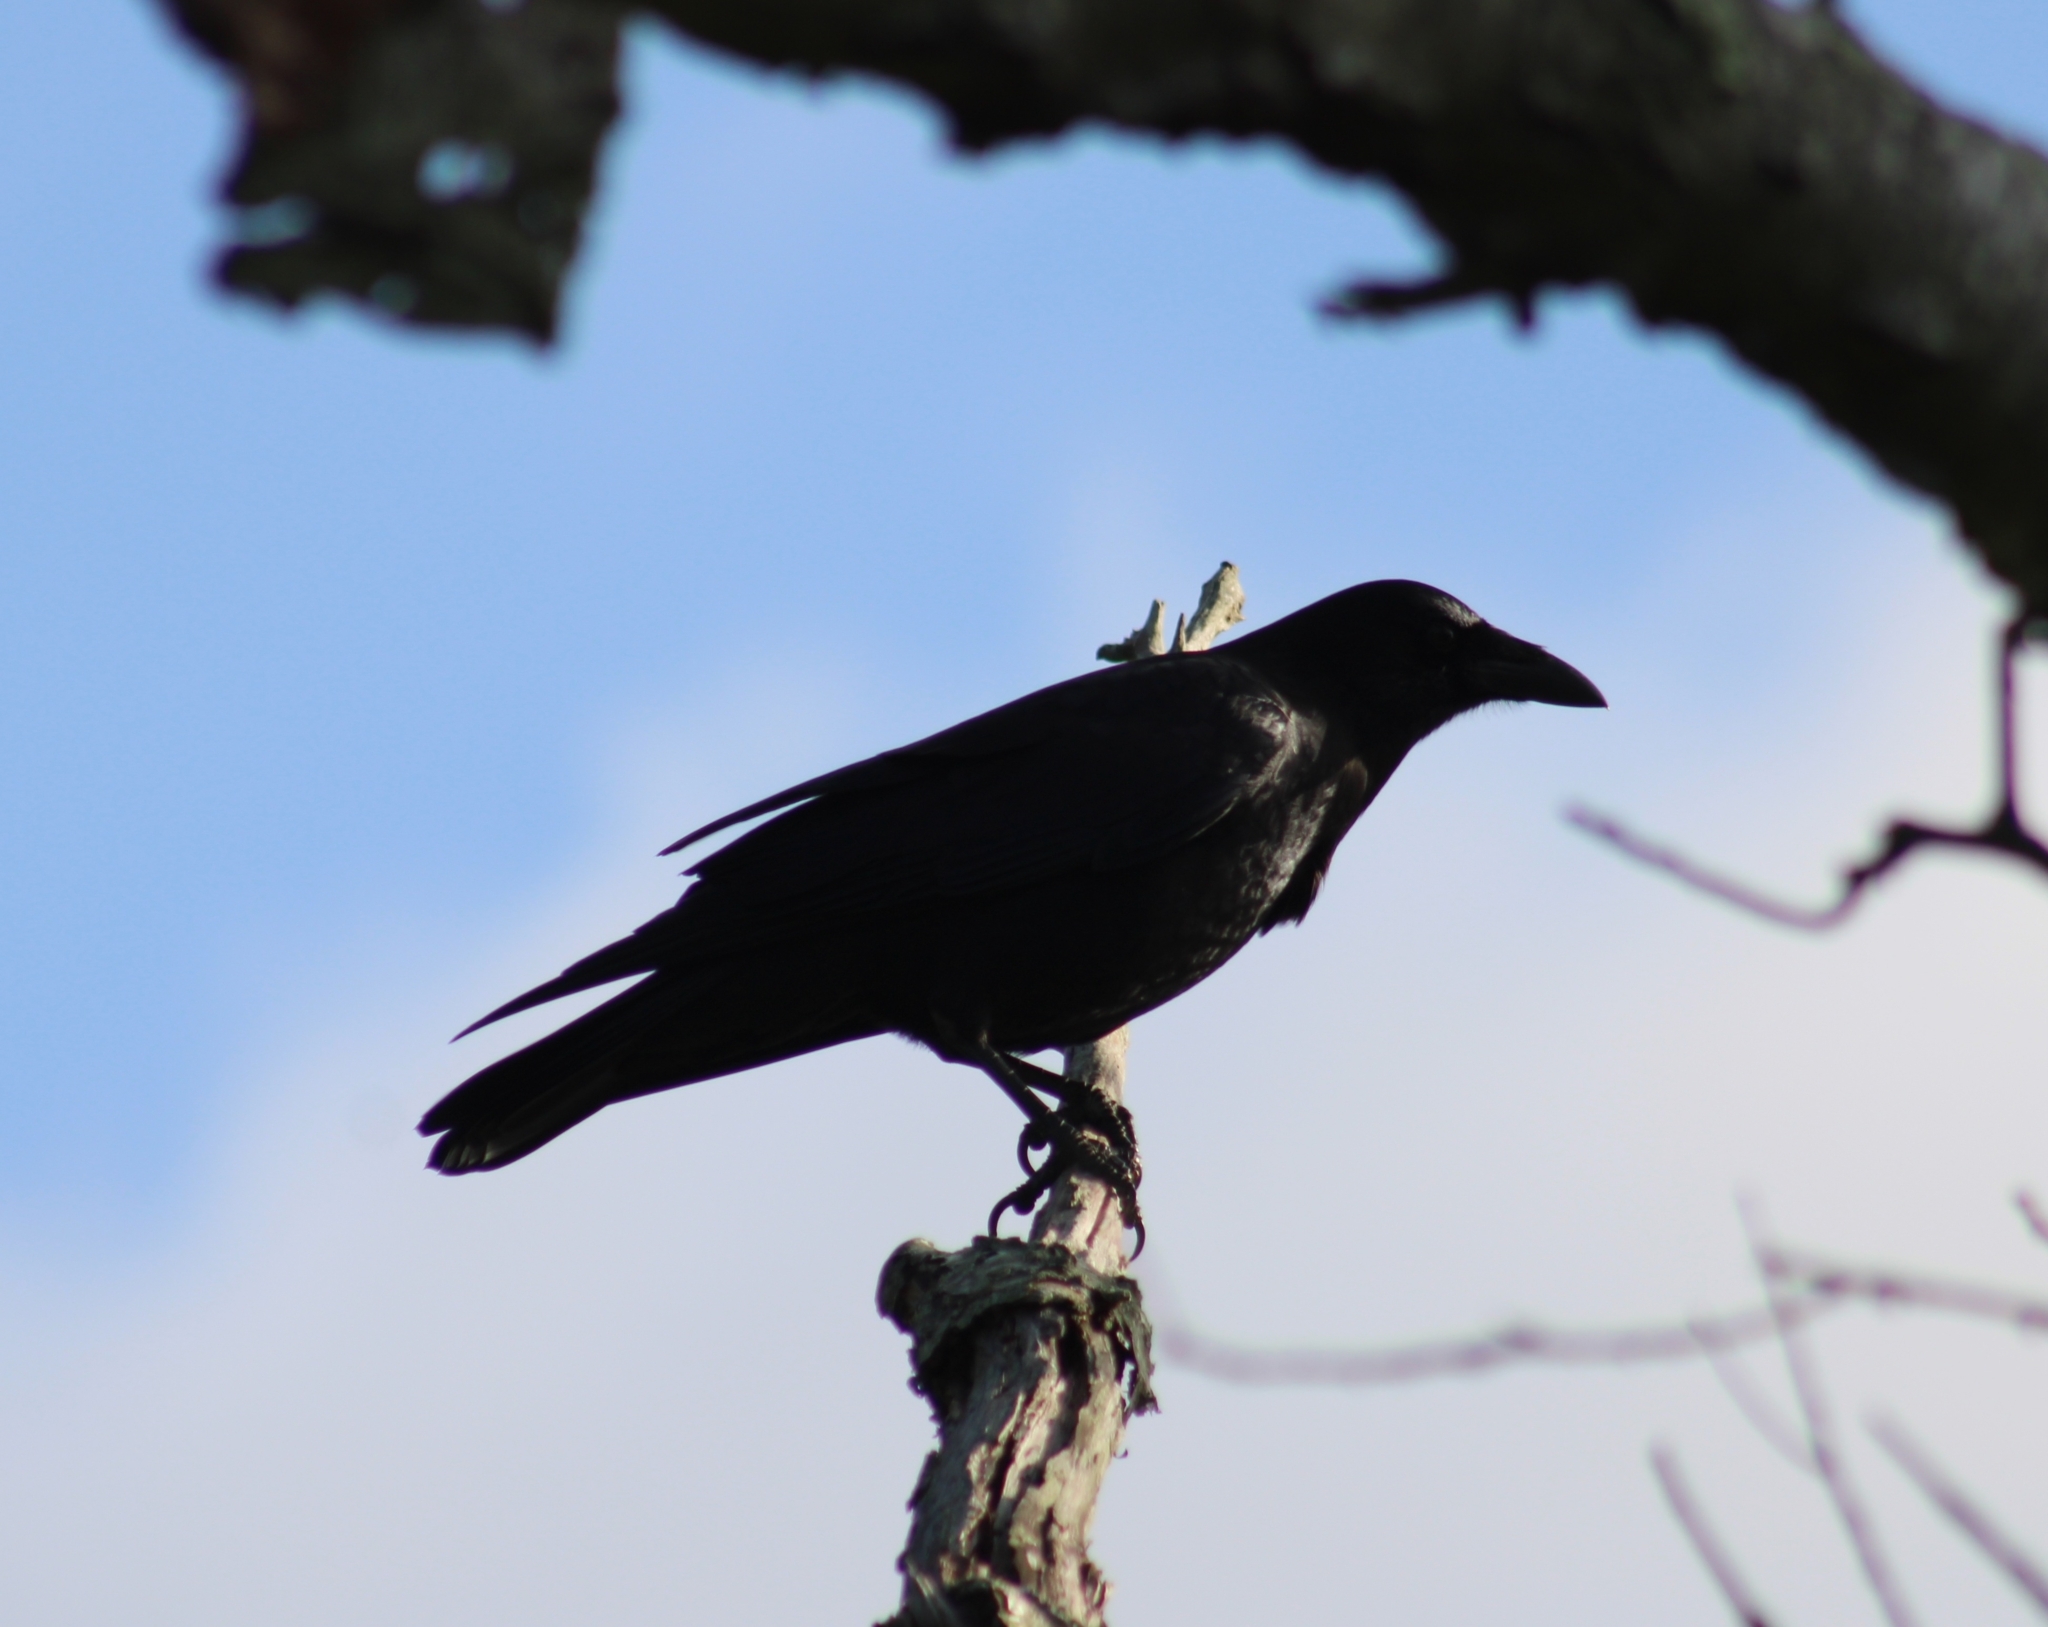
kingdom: Animalia
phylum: Chordata
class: Aves
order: Passeriformes
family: Corvidae
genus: Corvus
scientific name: Corvus brachyrhynchos
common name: American crow
